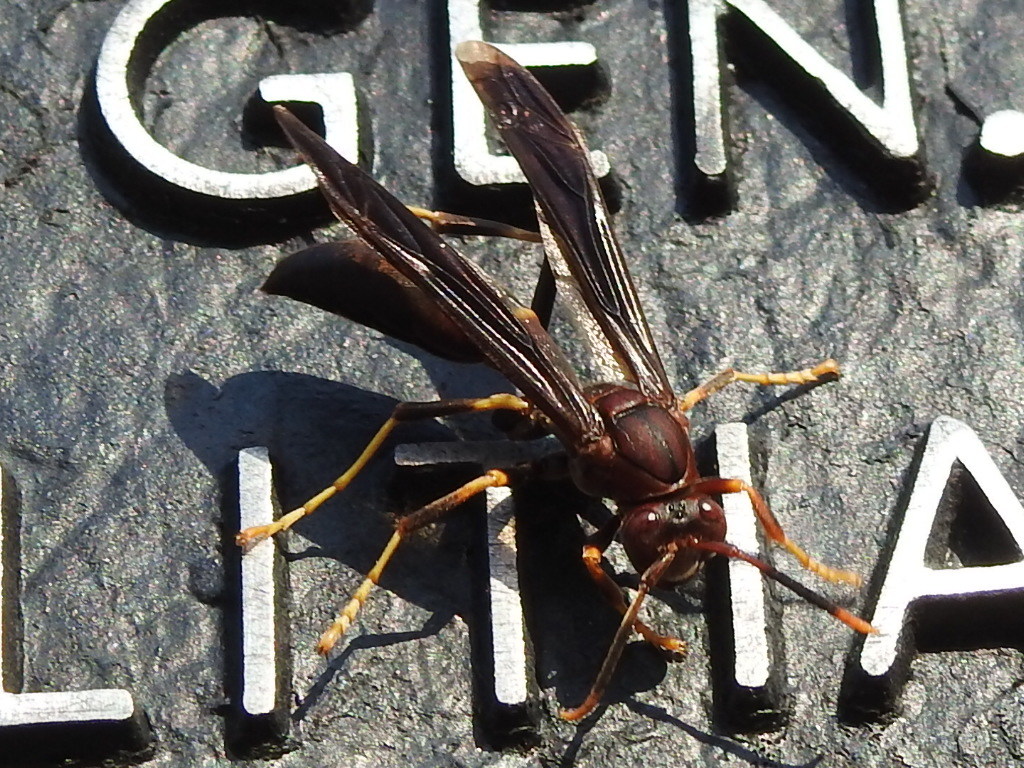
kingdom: Animalia
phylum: Arthropoda
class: Insecta
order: Hymenoptera
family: Eumenidae
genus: Polistes
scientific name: Polistes annularis
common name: Ringed paper wasp
